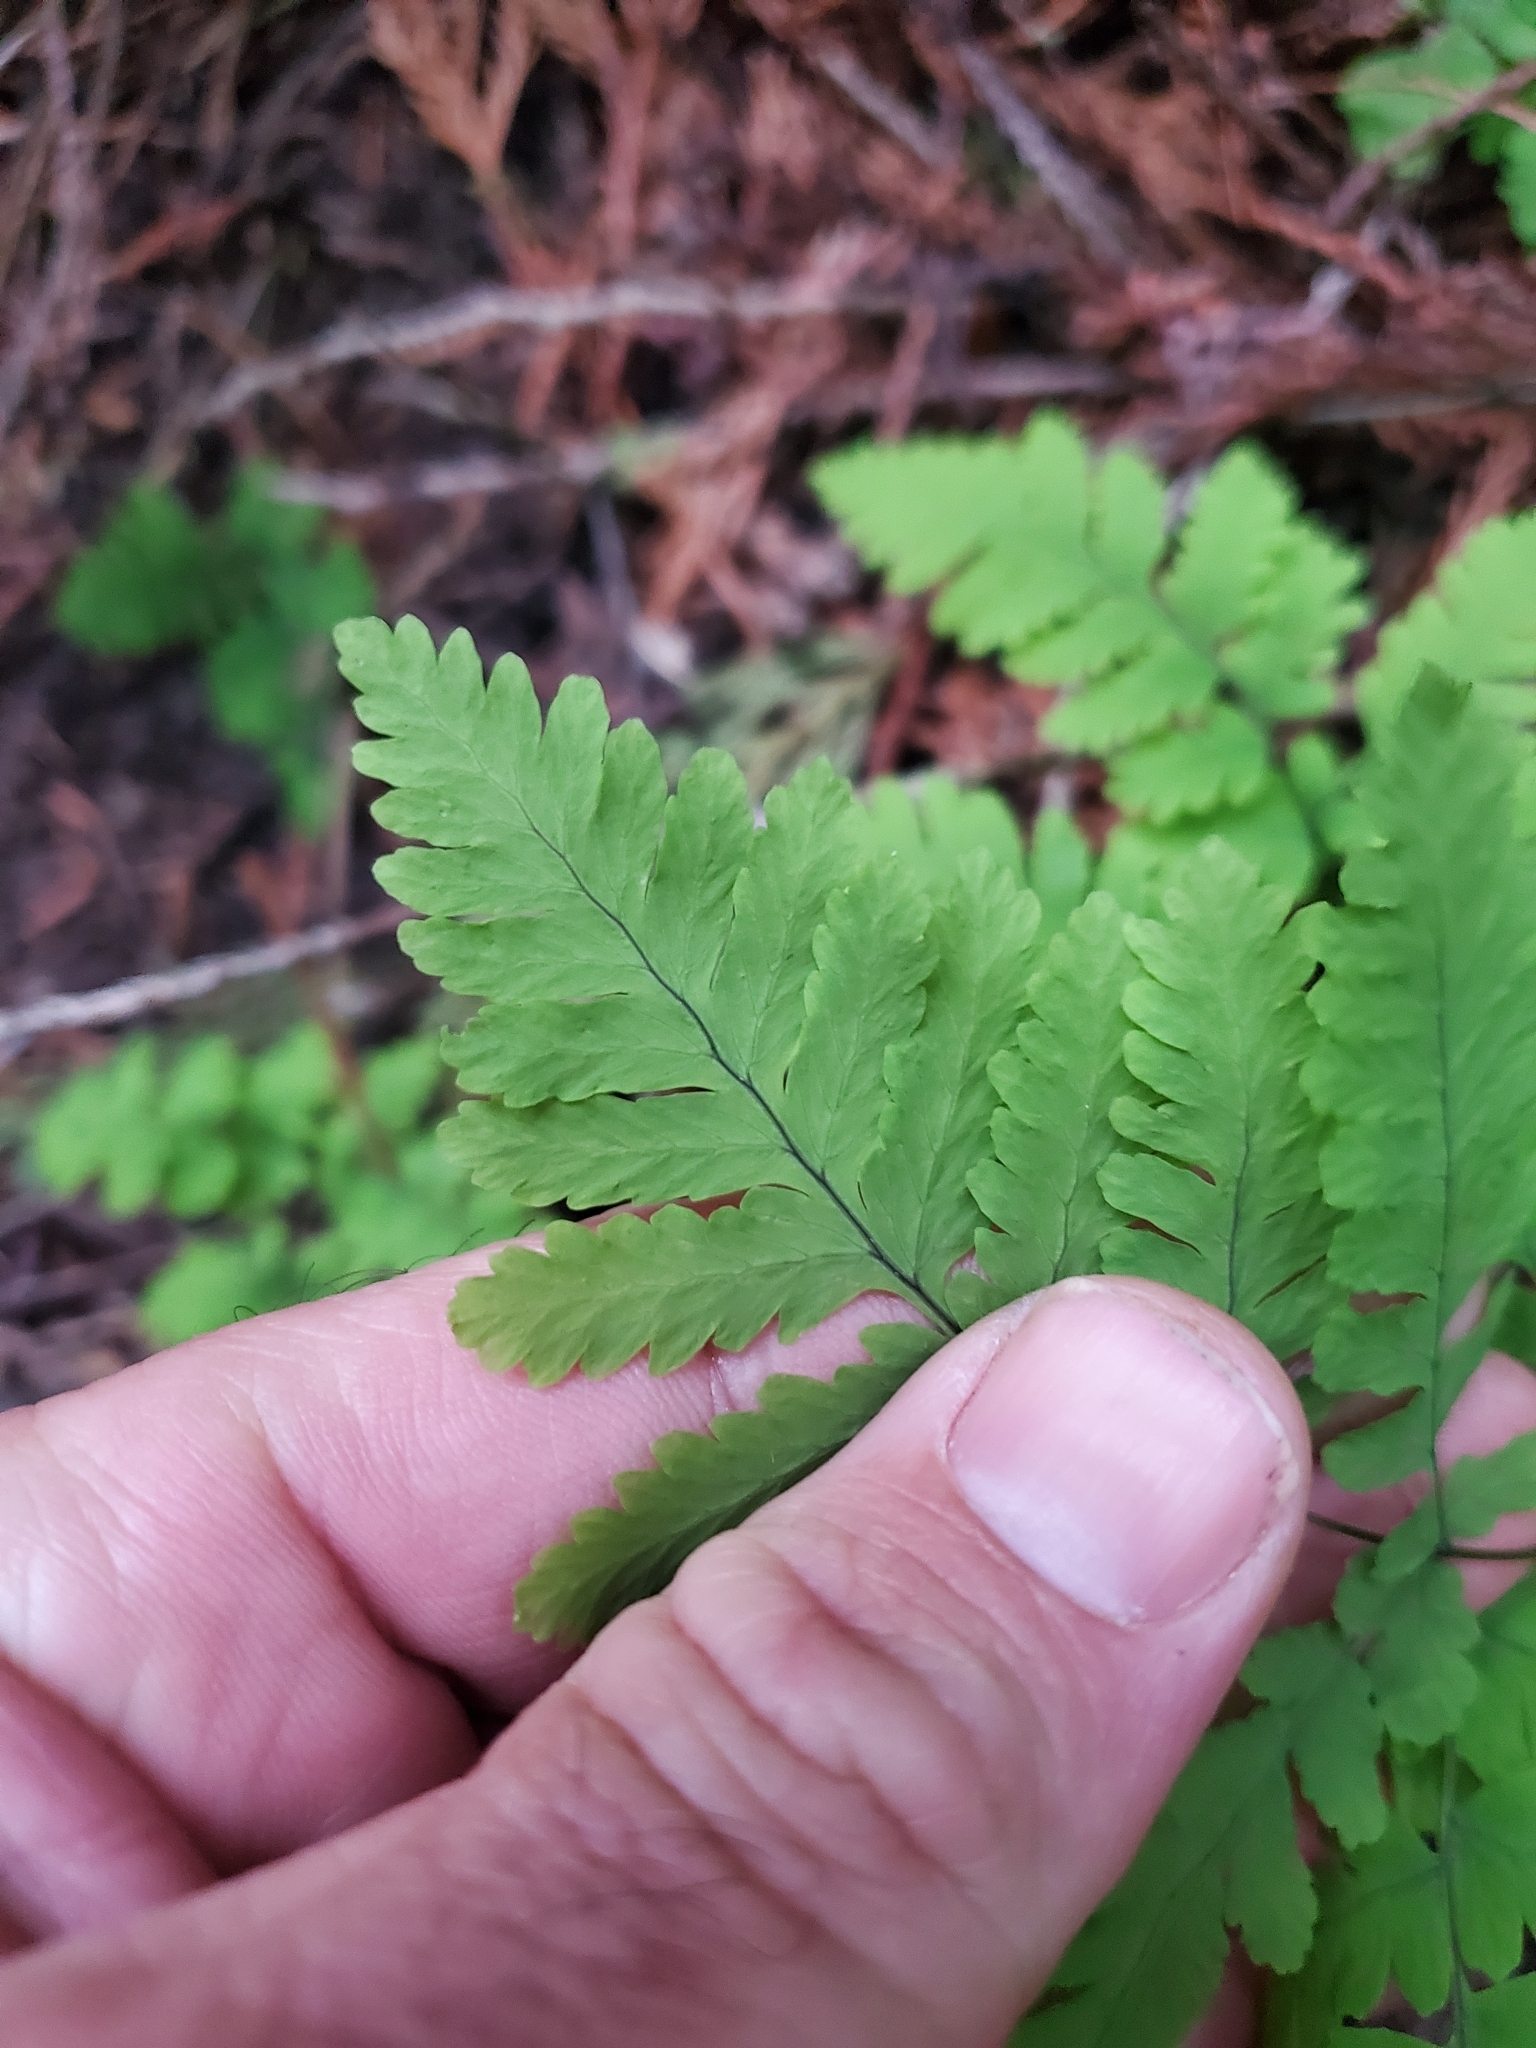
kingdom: Plantae
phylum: Tracheophyta
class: Polypodiopsida
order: Polypodiales
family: Cystopteridaceae
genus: Gymnocarpium
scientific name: Gymnocarpium dryopteris
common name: Oak fern
